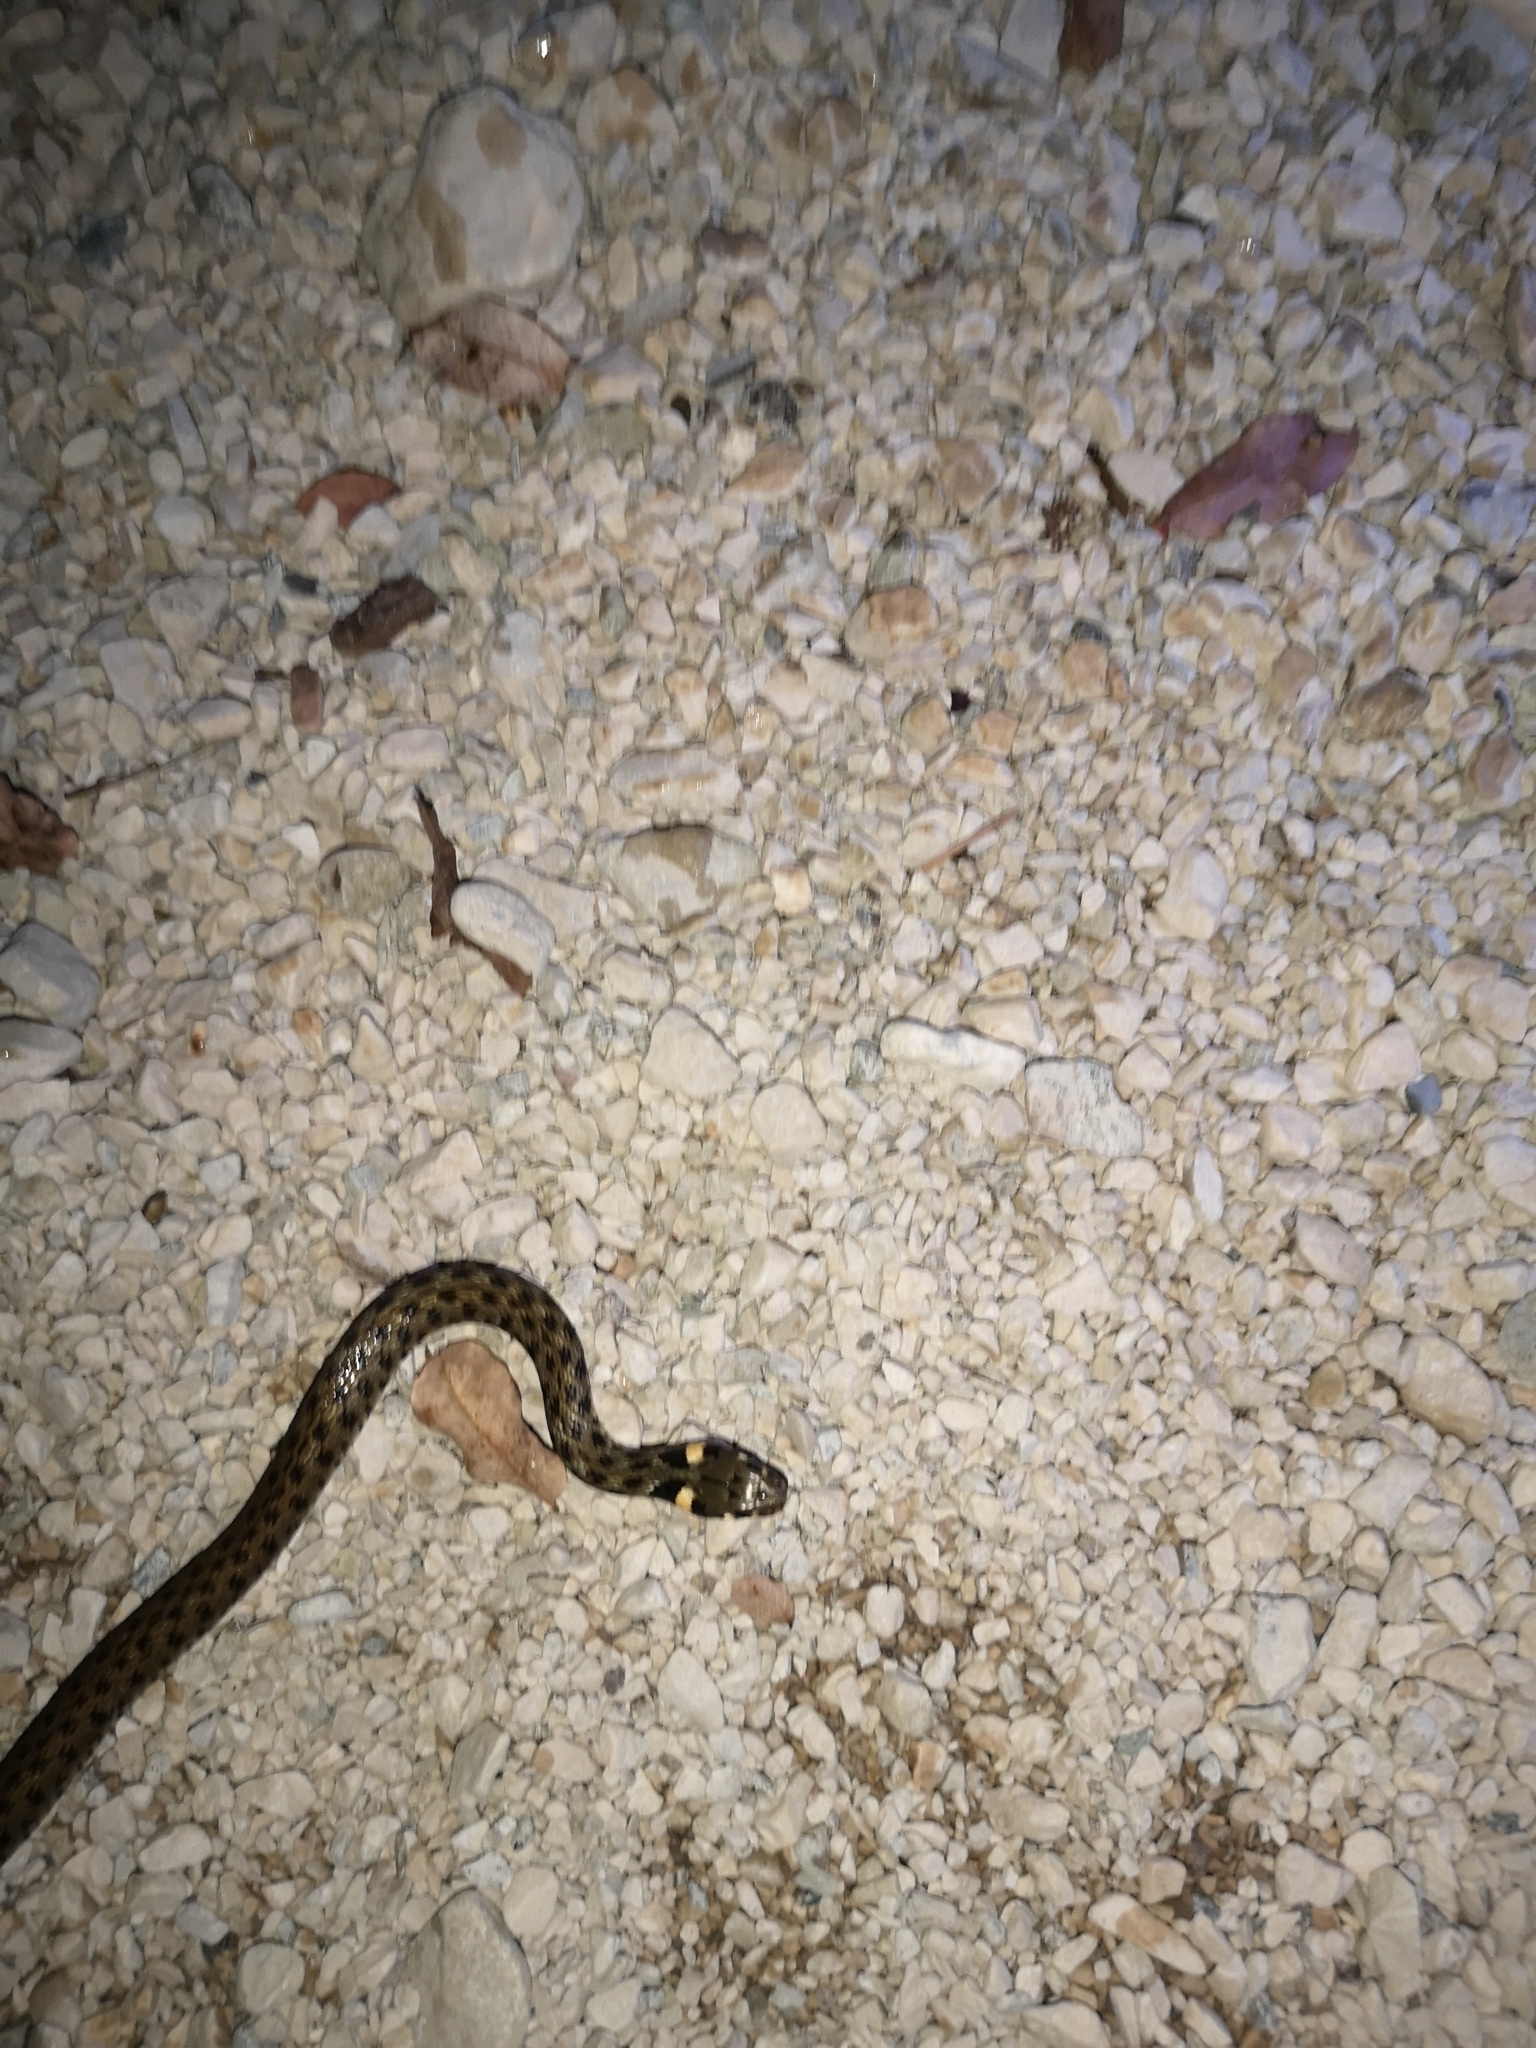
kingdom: Animalia
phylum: Chordata
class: Squamata
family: Colubridae
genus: Natrix
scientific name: Natrix natrix
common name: Grass snake
